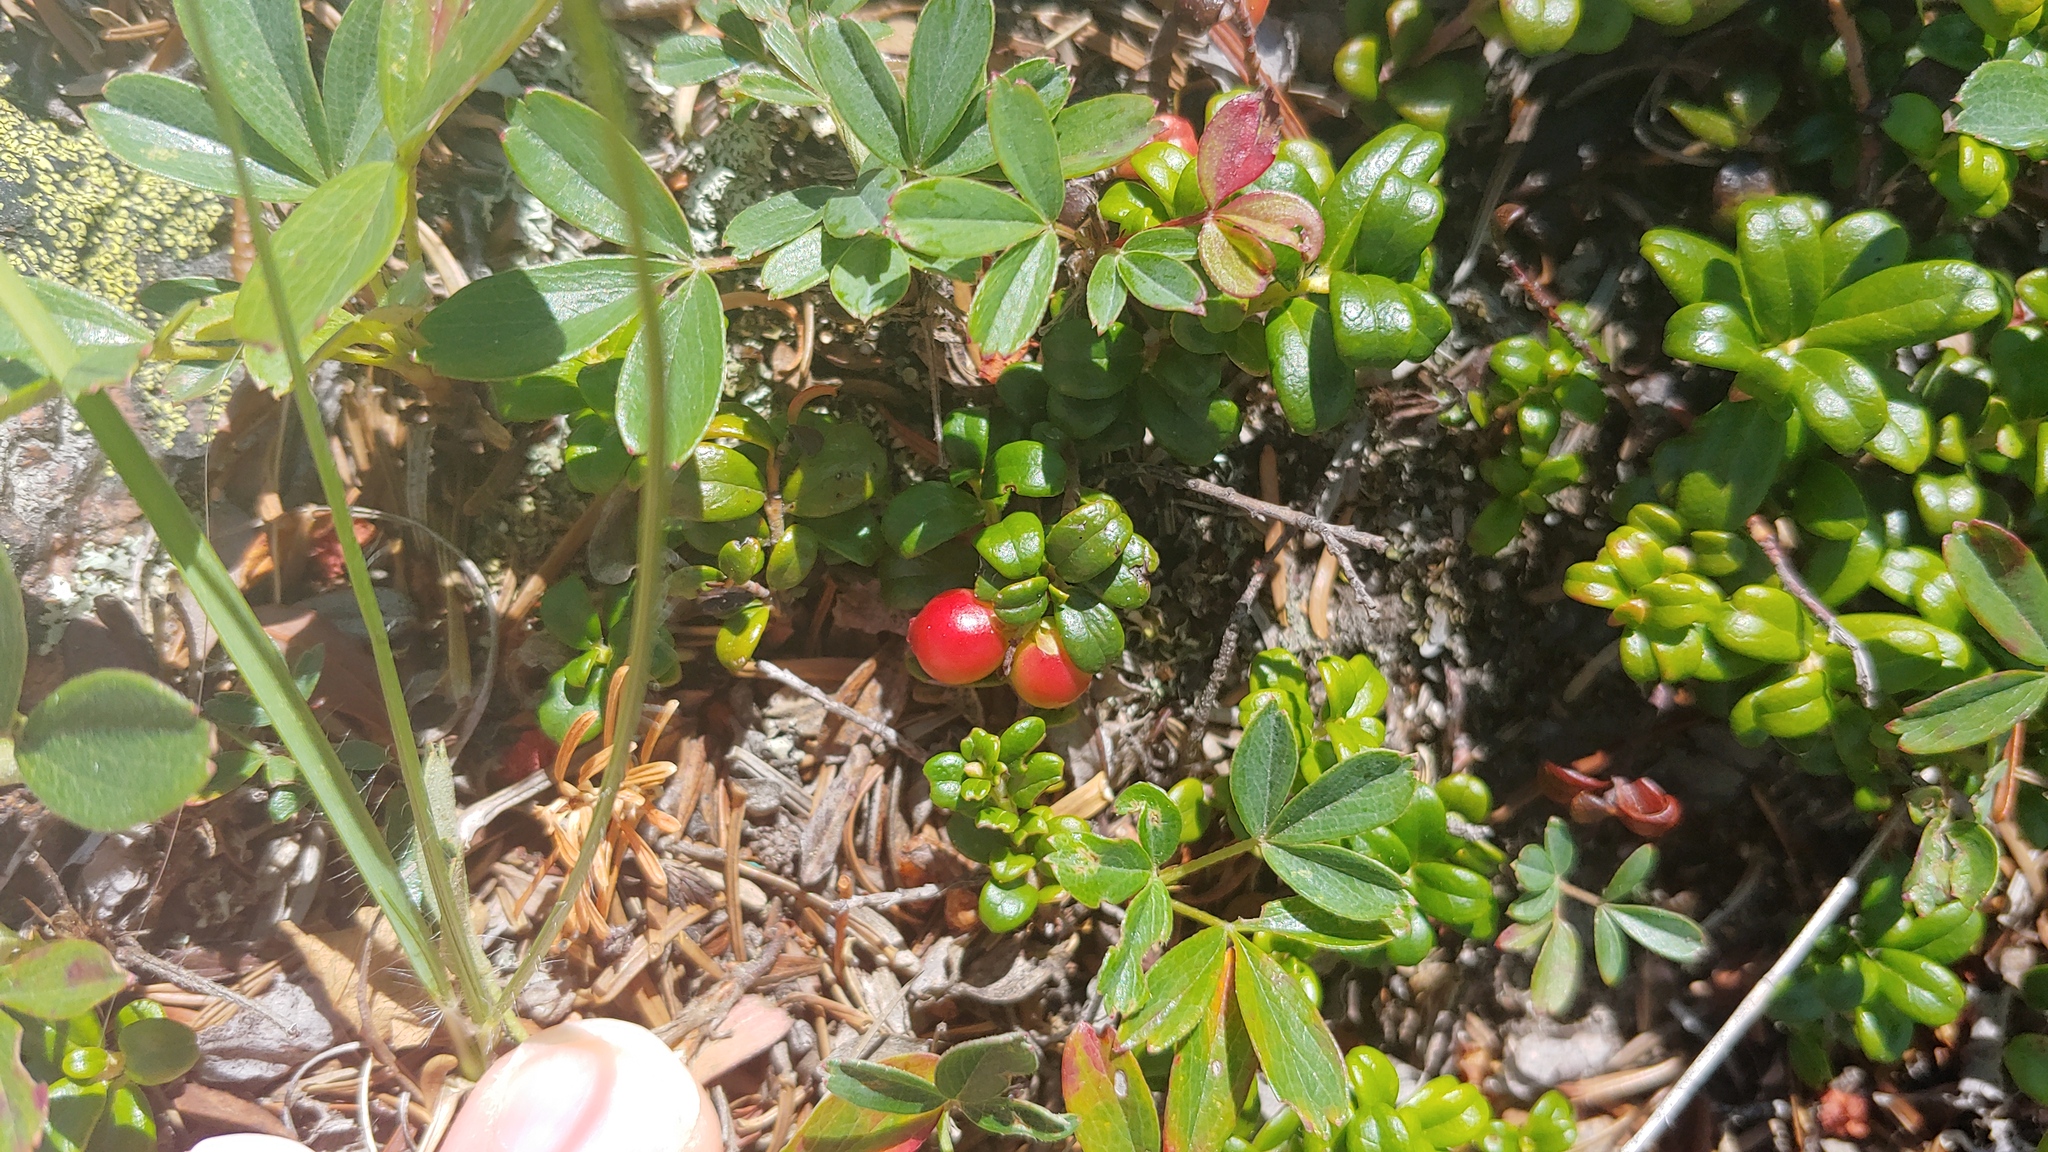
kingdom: Plantae
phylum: Tracheophyta
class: Magnoliopsida
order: Ericales
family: Ericaceae
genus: Vaccinium
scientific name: Vaccinium vitis-idaea
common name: Cowberry
